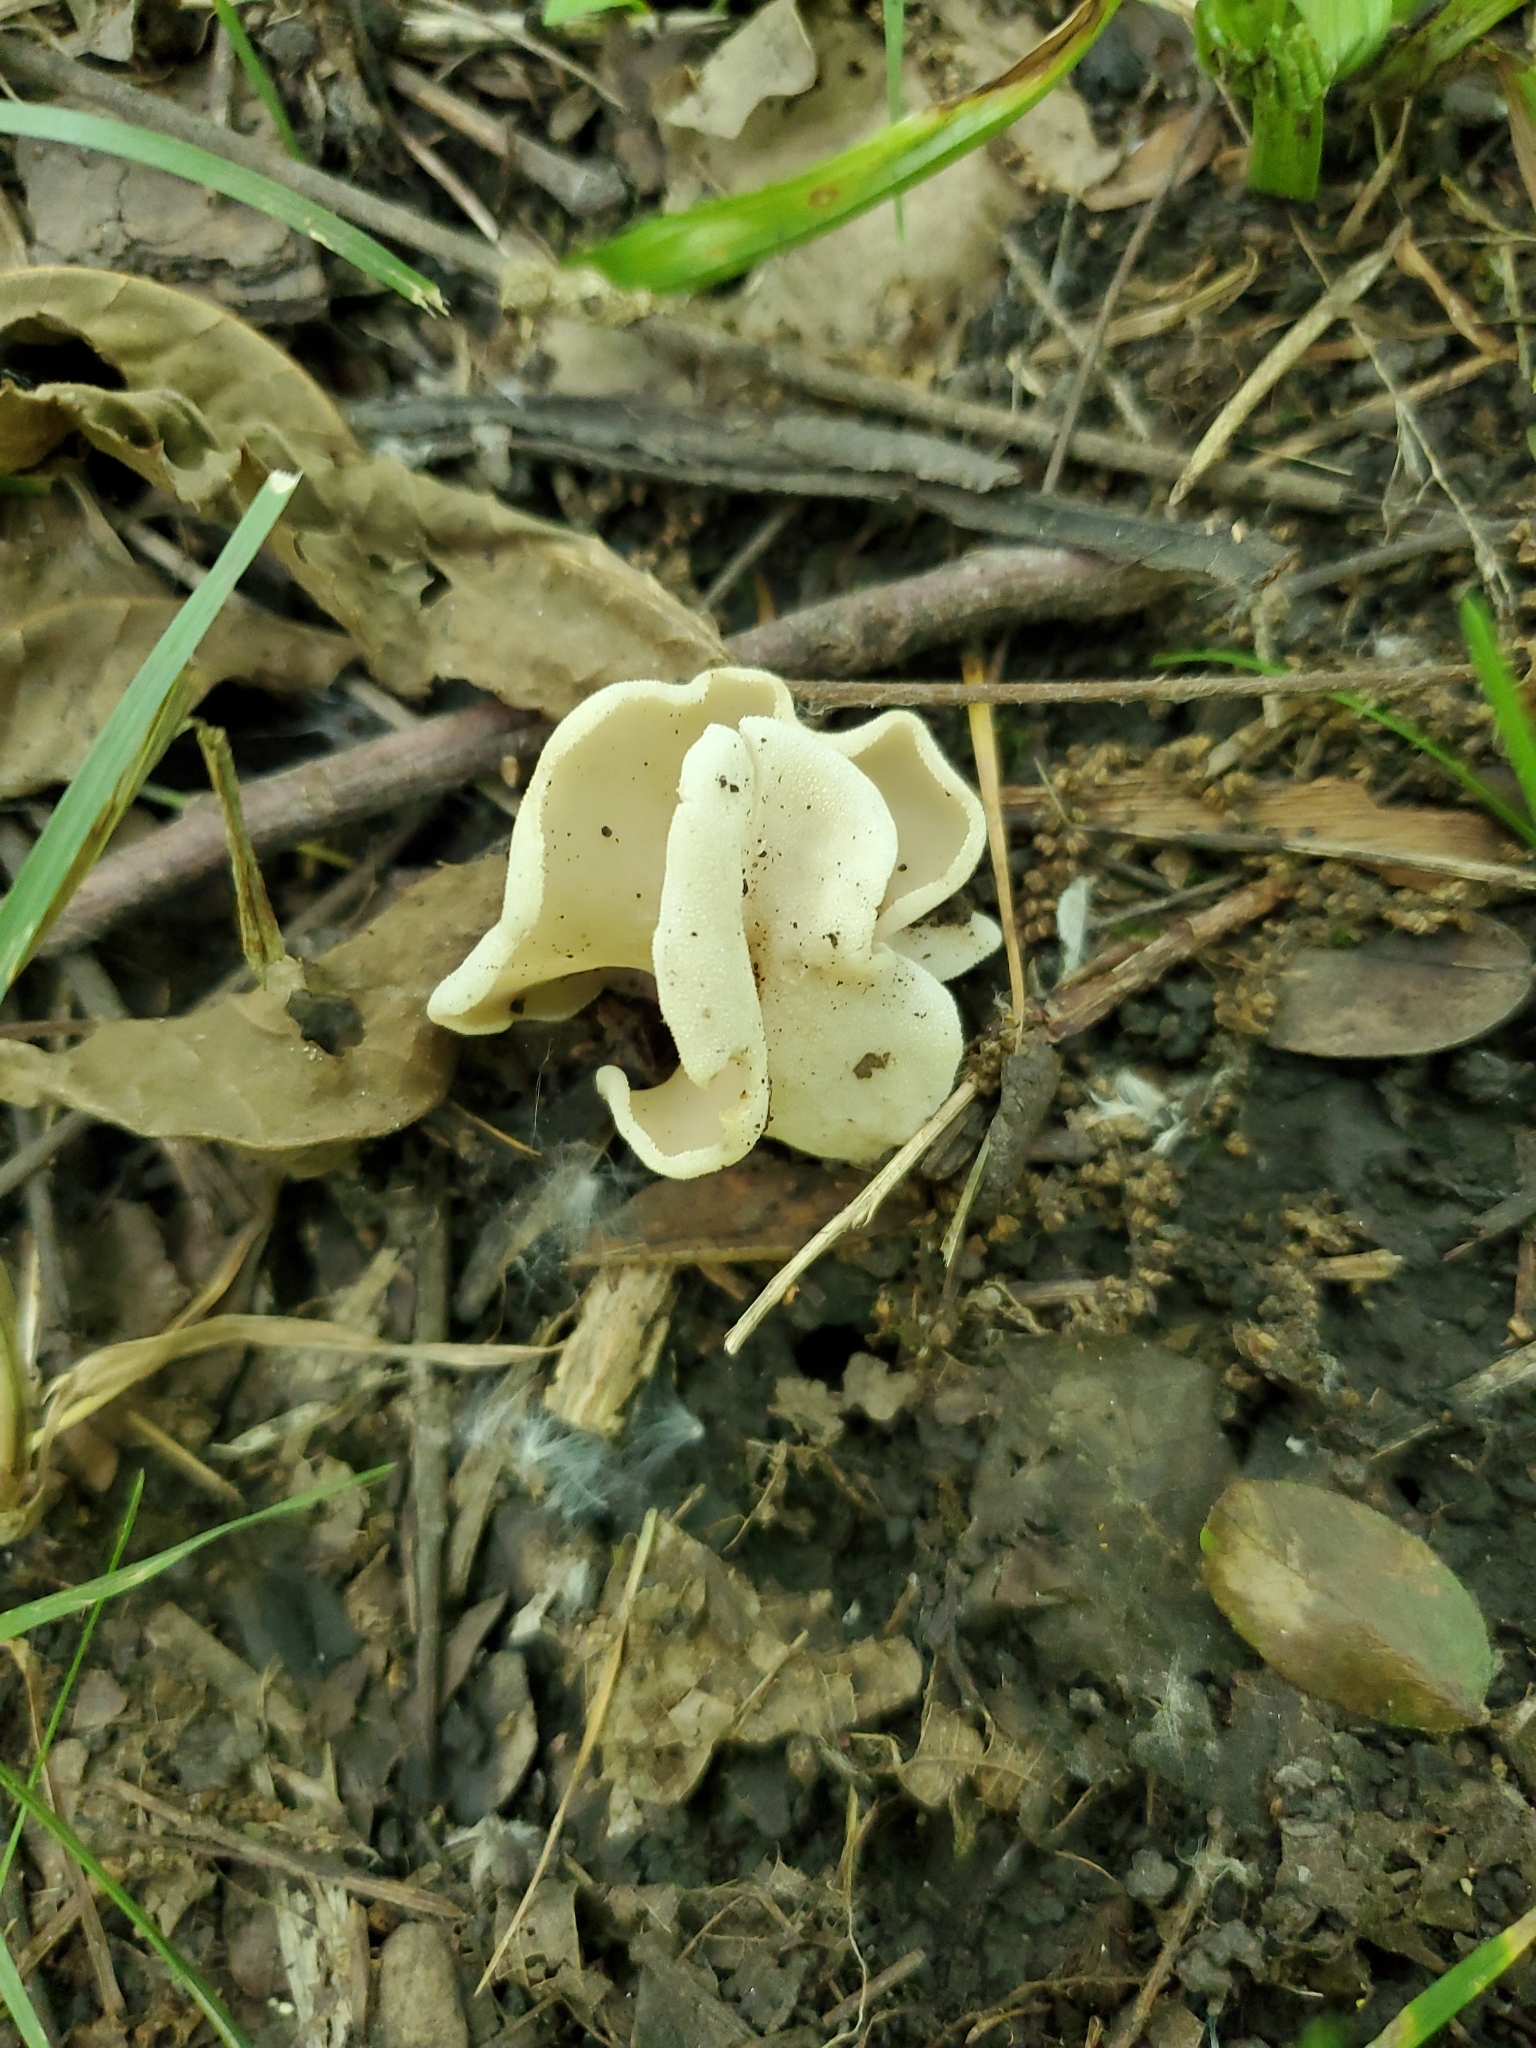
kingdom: Fungi
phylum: Ascomycota
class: Pezizomycetes
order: Pezizales
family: Helvellaceae
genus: Helvella
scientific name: Helvella crispa
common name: White saddle
